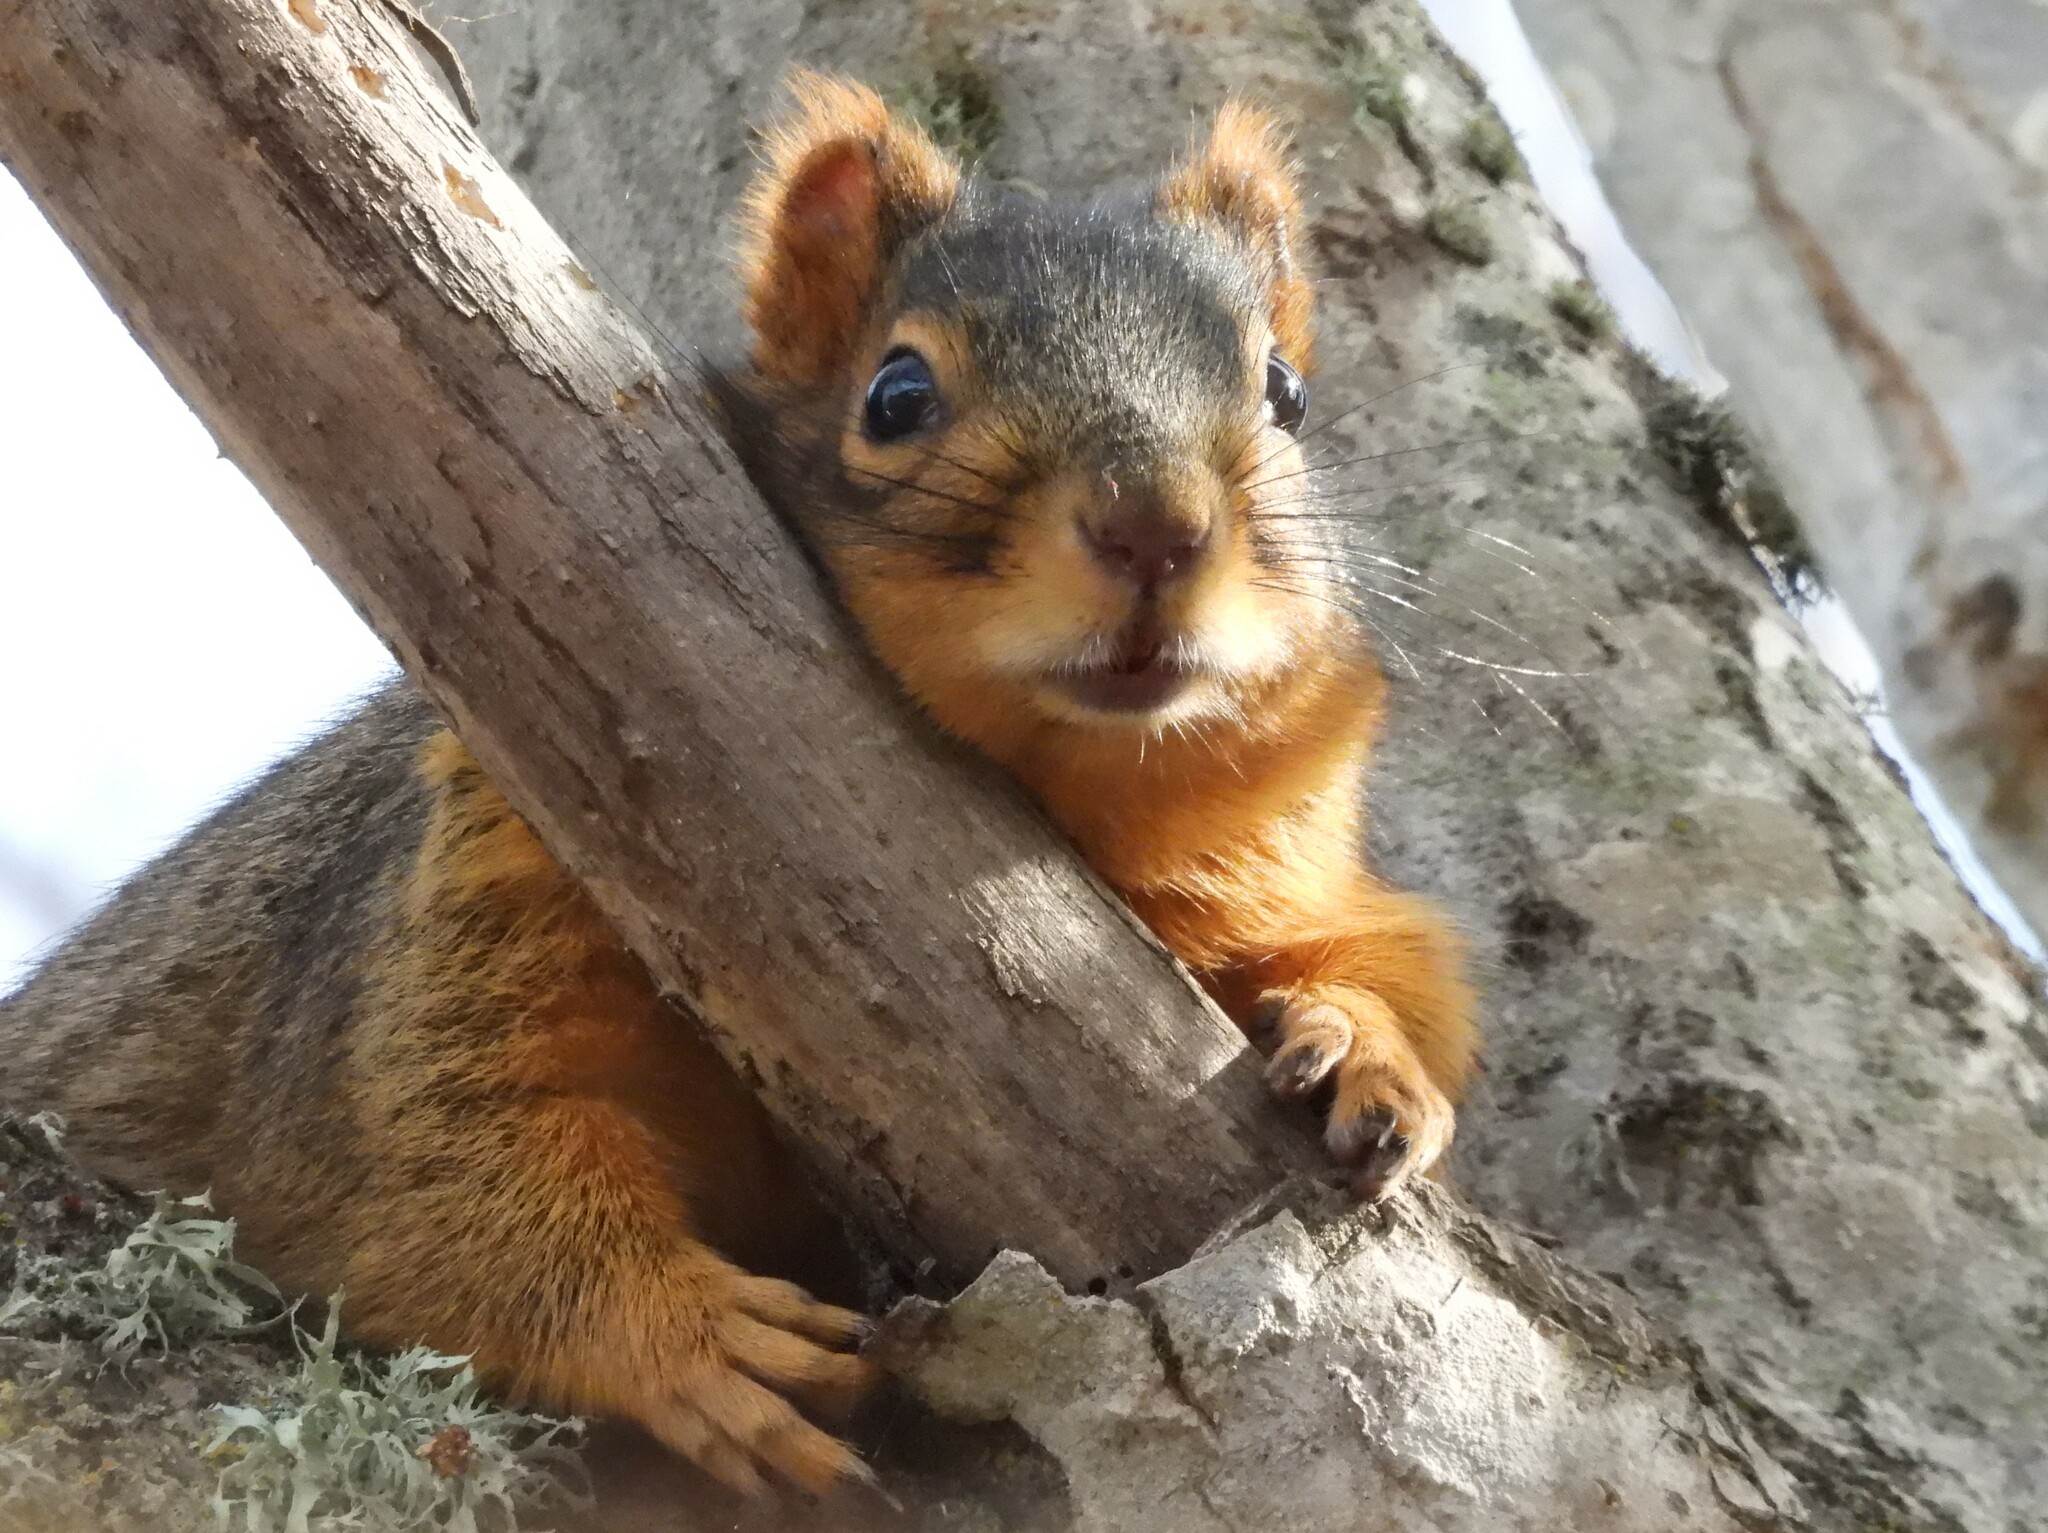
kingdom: Animalia
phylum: Chordata
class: Mammalia
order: Rodentia
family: Sciuridae
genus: Sciurus
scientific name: Sciurus niger
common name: Fox squirrel
